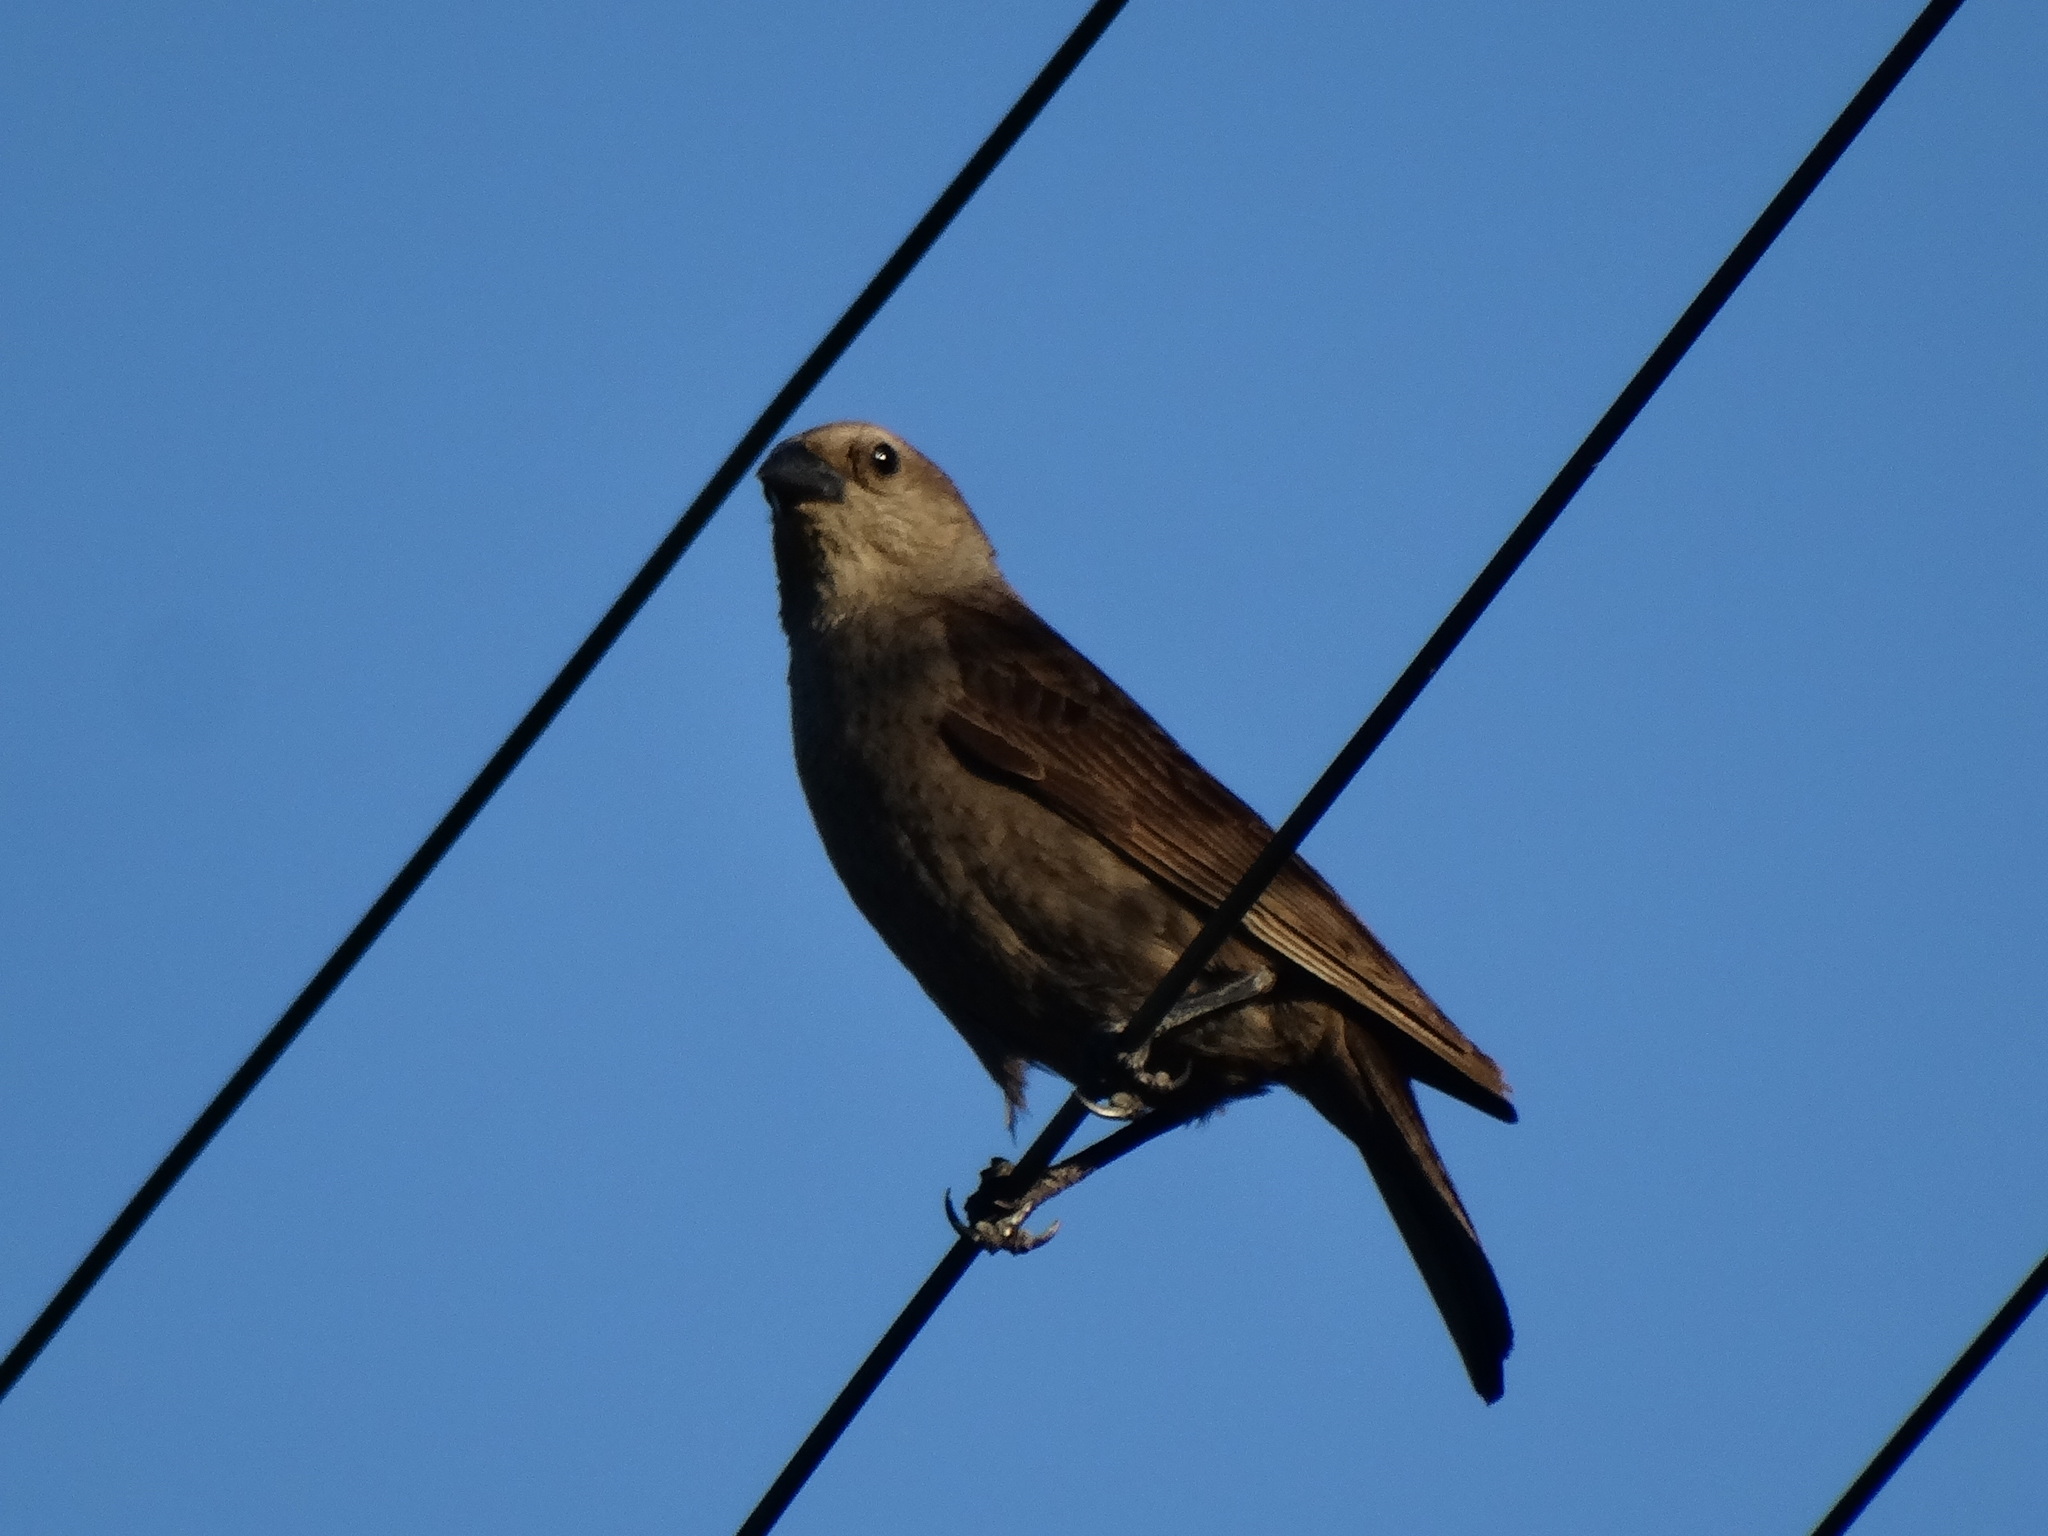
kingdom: Animalia
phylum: Chordata
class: Aves
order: Passeriformes
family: Icteridae
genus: Molothrus
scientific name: Molothrus bonariensis
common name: Shiny cowbird
